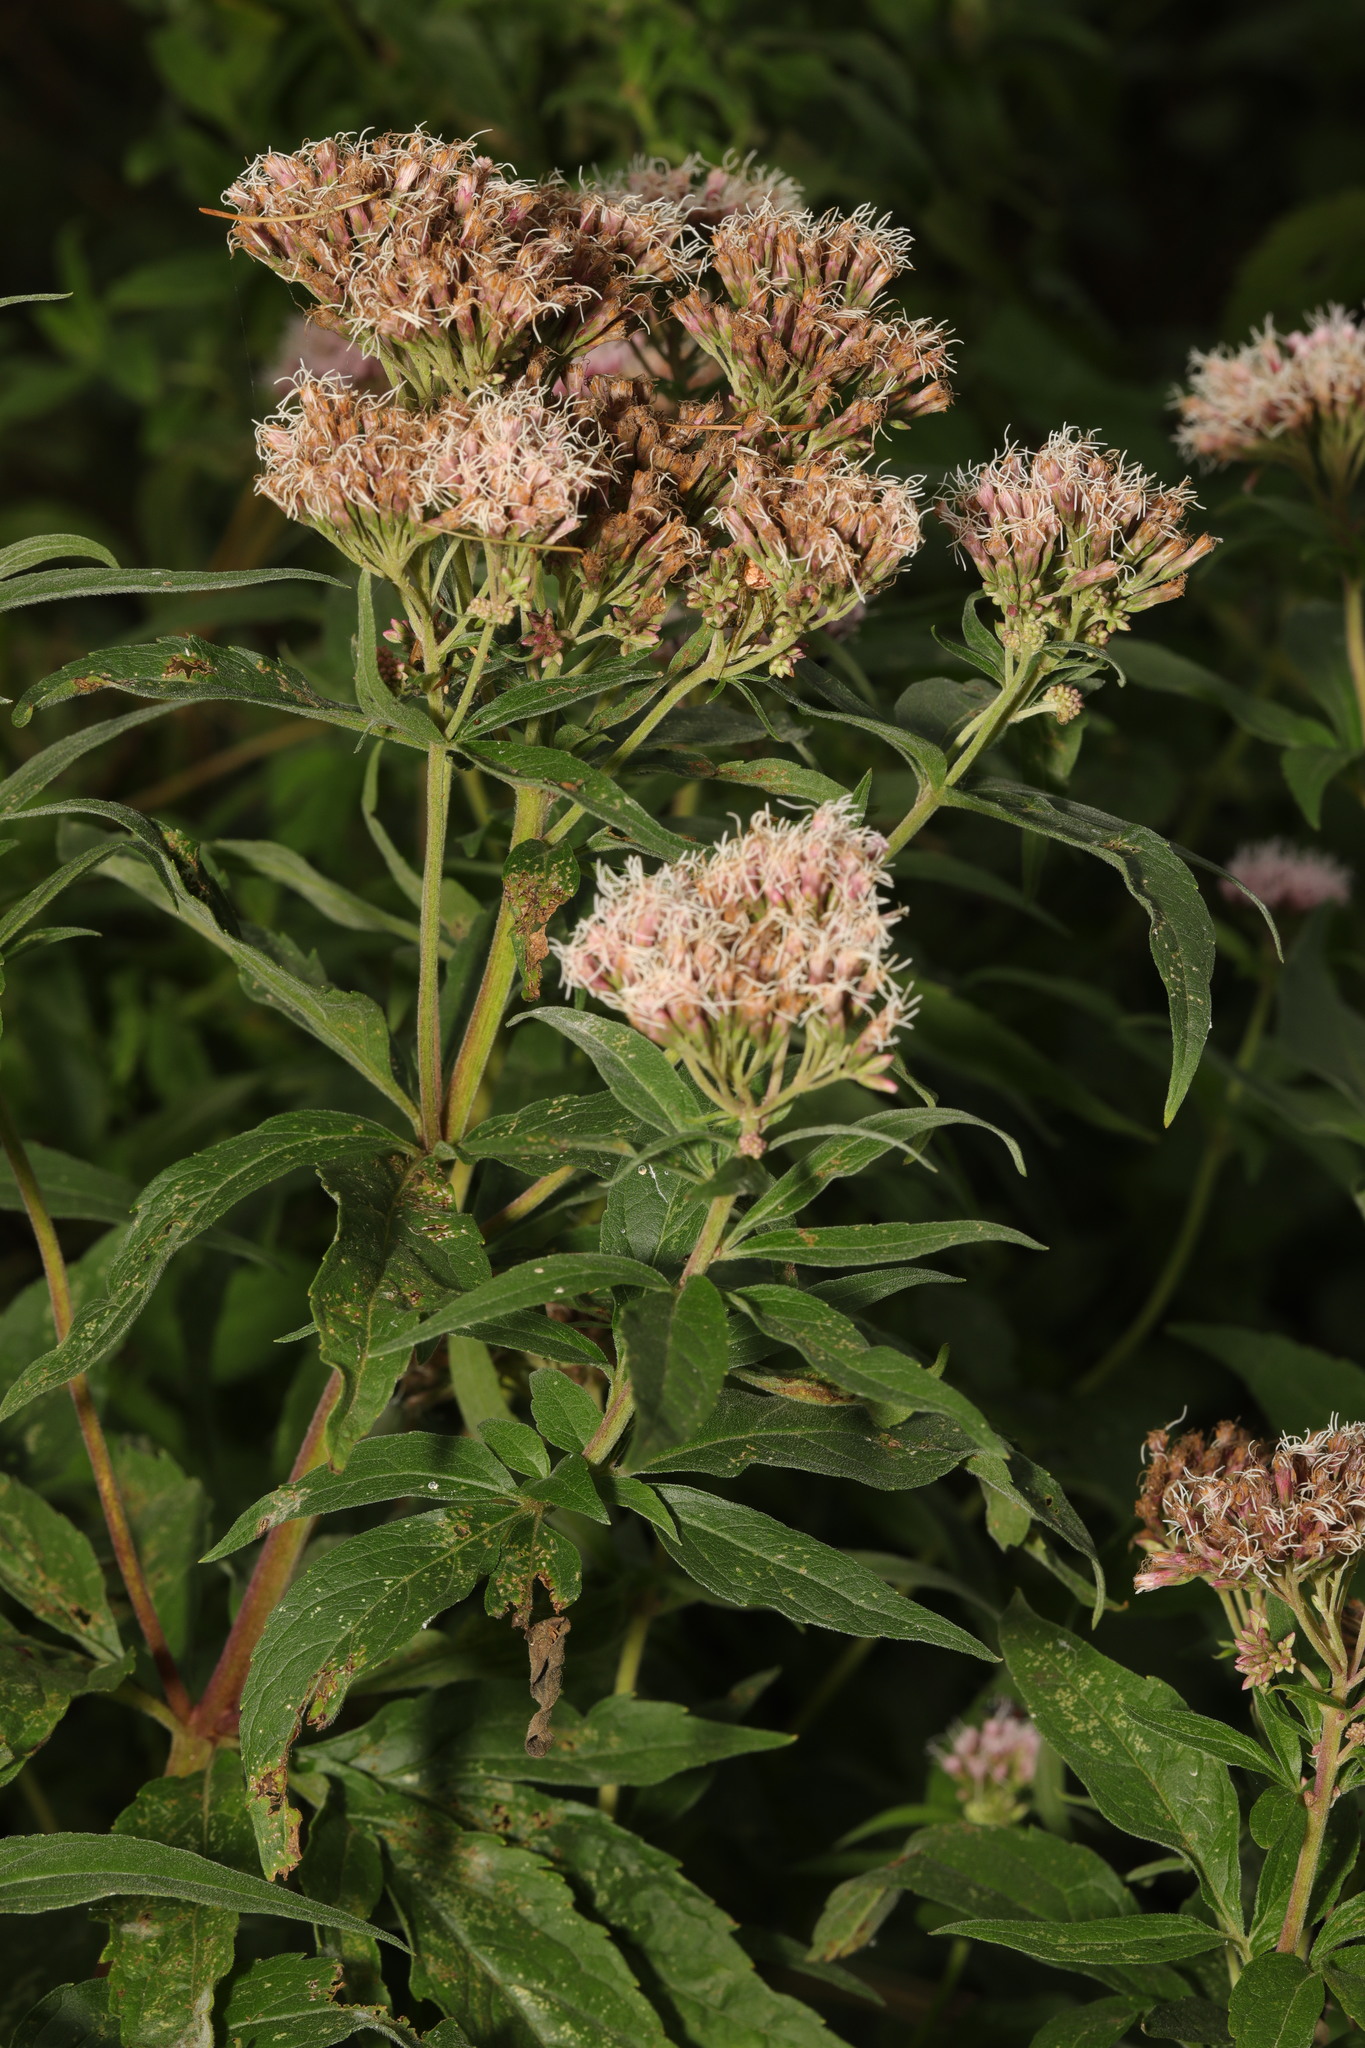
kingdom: Plantae
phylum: Tracheophyta
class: Magnoliopsida
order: Asterales
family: Asteraceae
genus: Eupatorium
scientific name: Eupatorium cannabinum
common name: Hemp-agrimony
